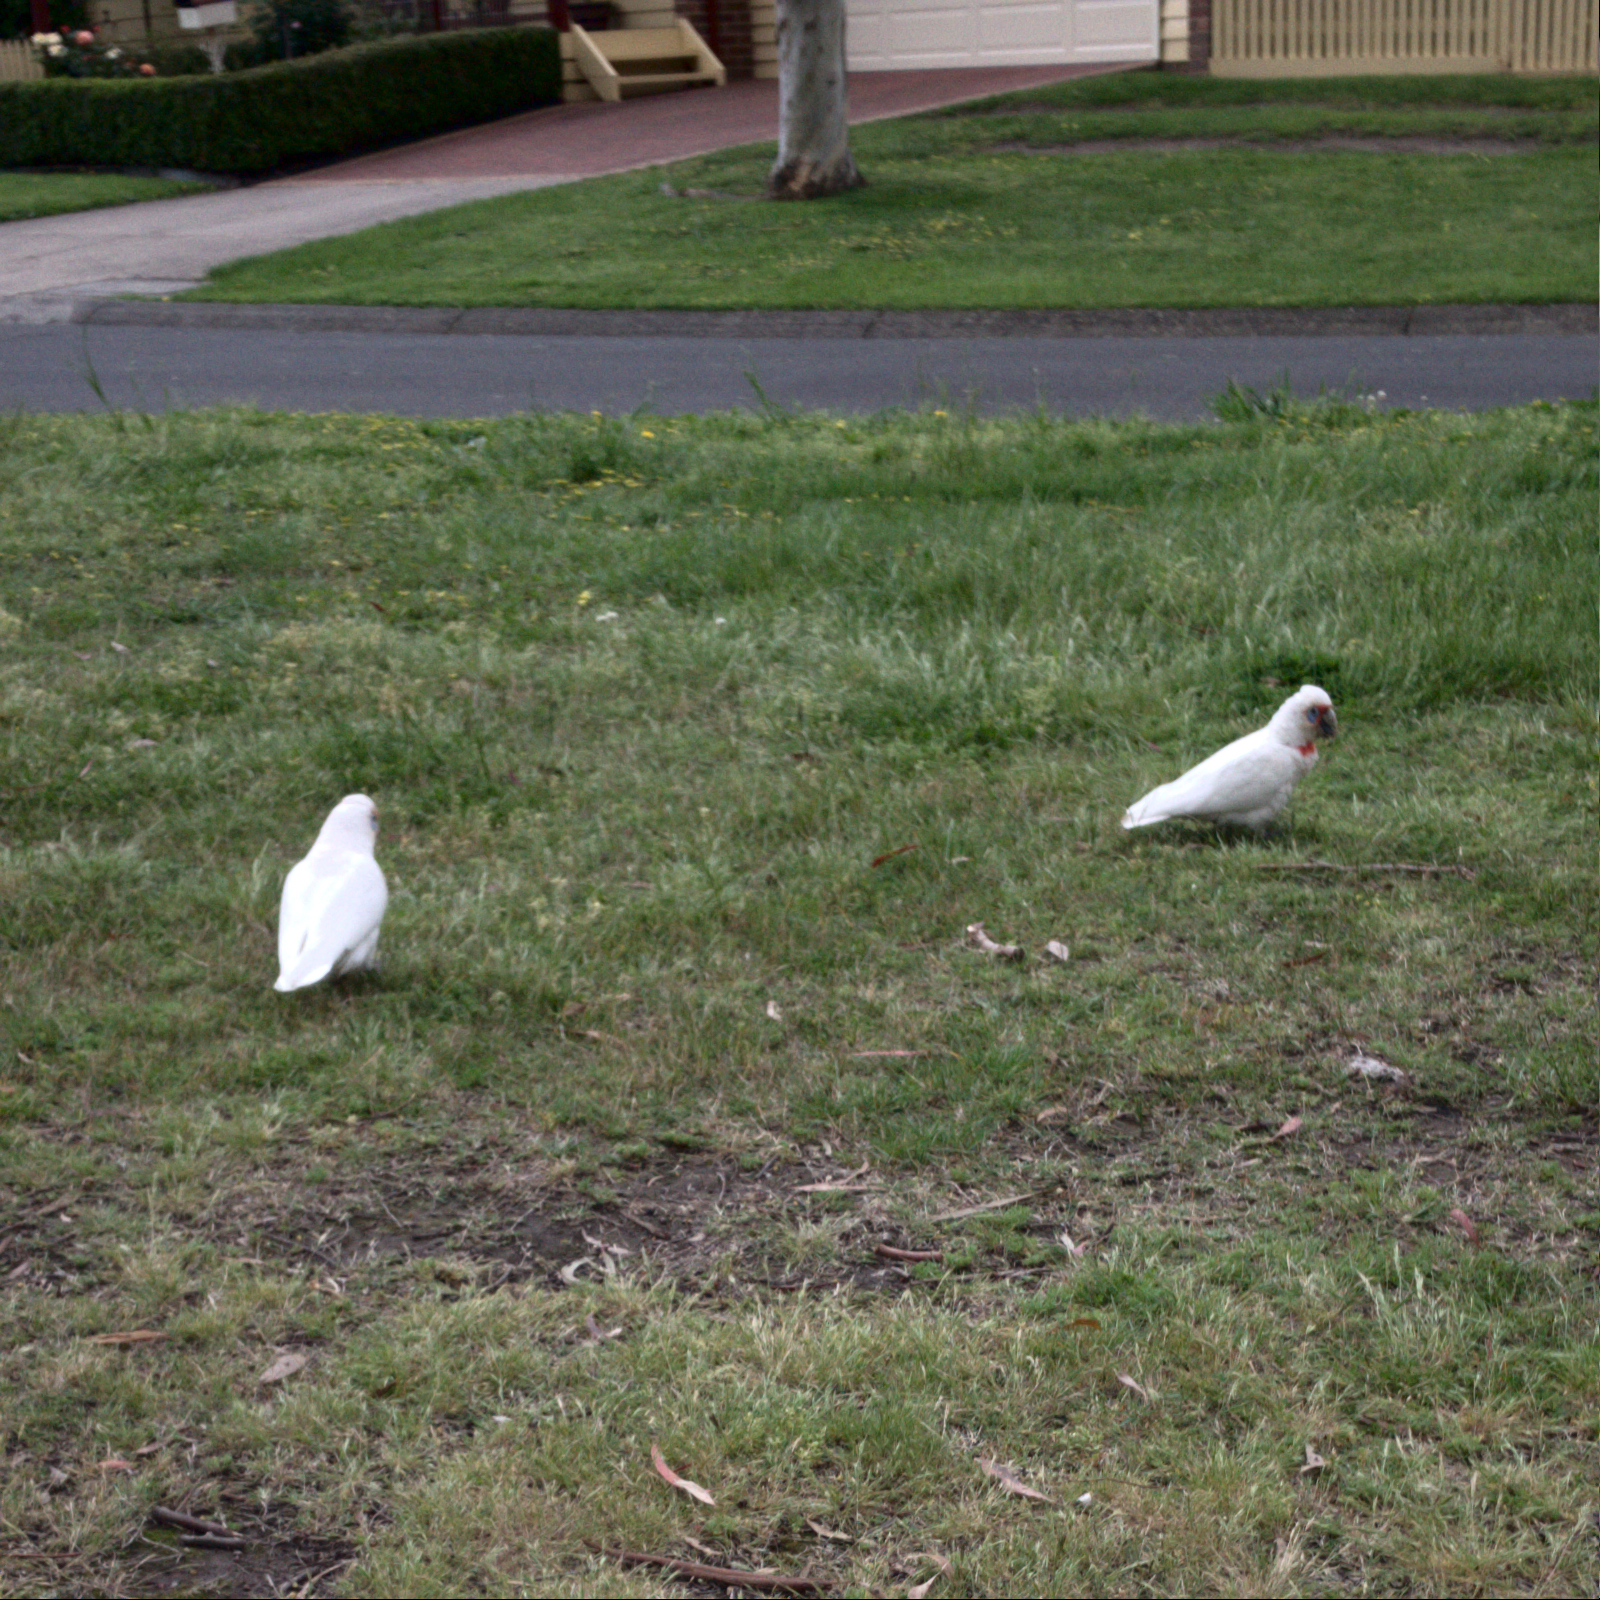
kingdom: Animalia
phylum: Chordata
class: Aves
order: Psittaciformes
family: Psittacidae
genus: Cacatua
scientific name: Cacatua tenuirostris
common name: Long-billed corella
